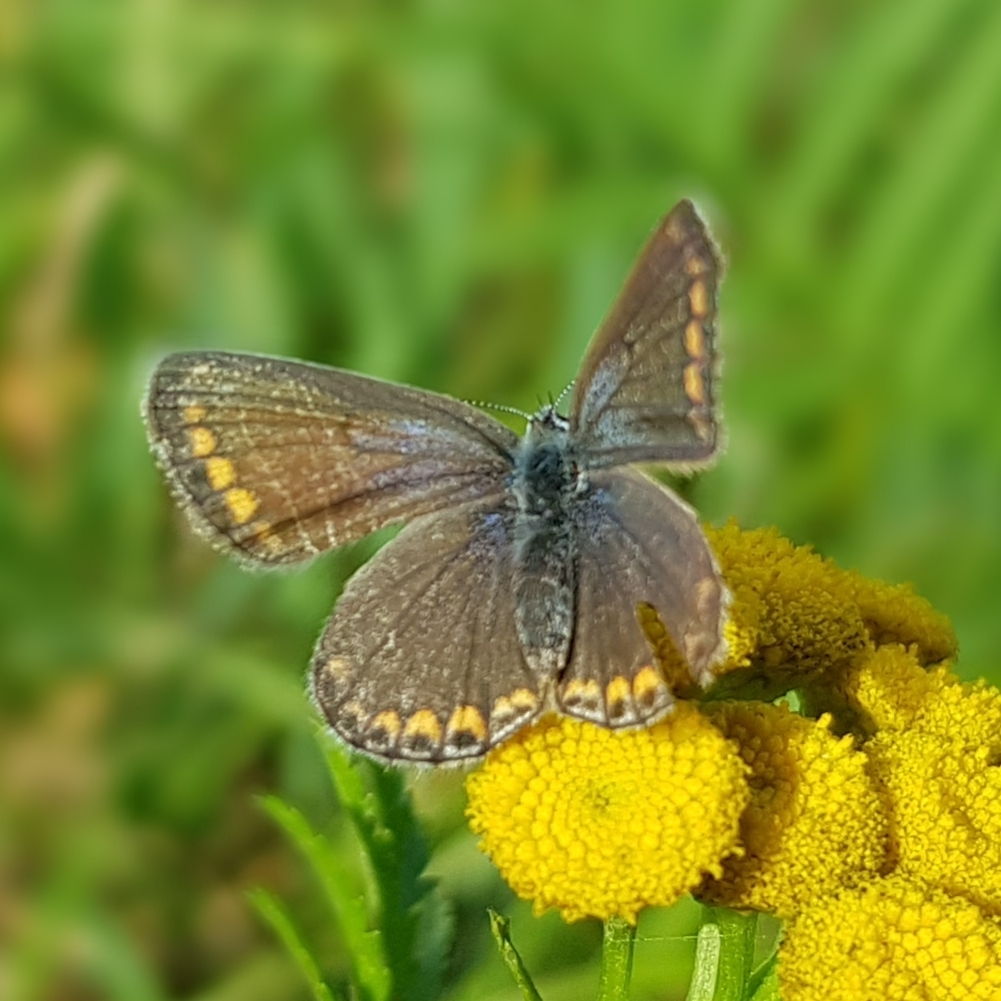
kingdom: Animalia
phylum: Arthropoda
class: Insecta
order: Lepidoptera
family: Lycaenidae
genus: Polyommatus
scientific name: Polyommatus icarus
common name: Common blue
